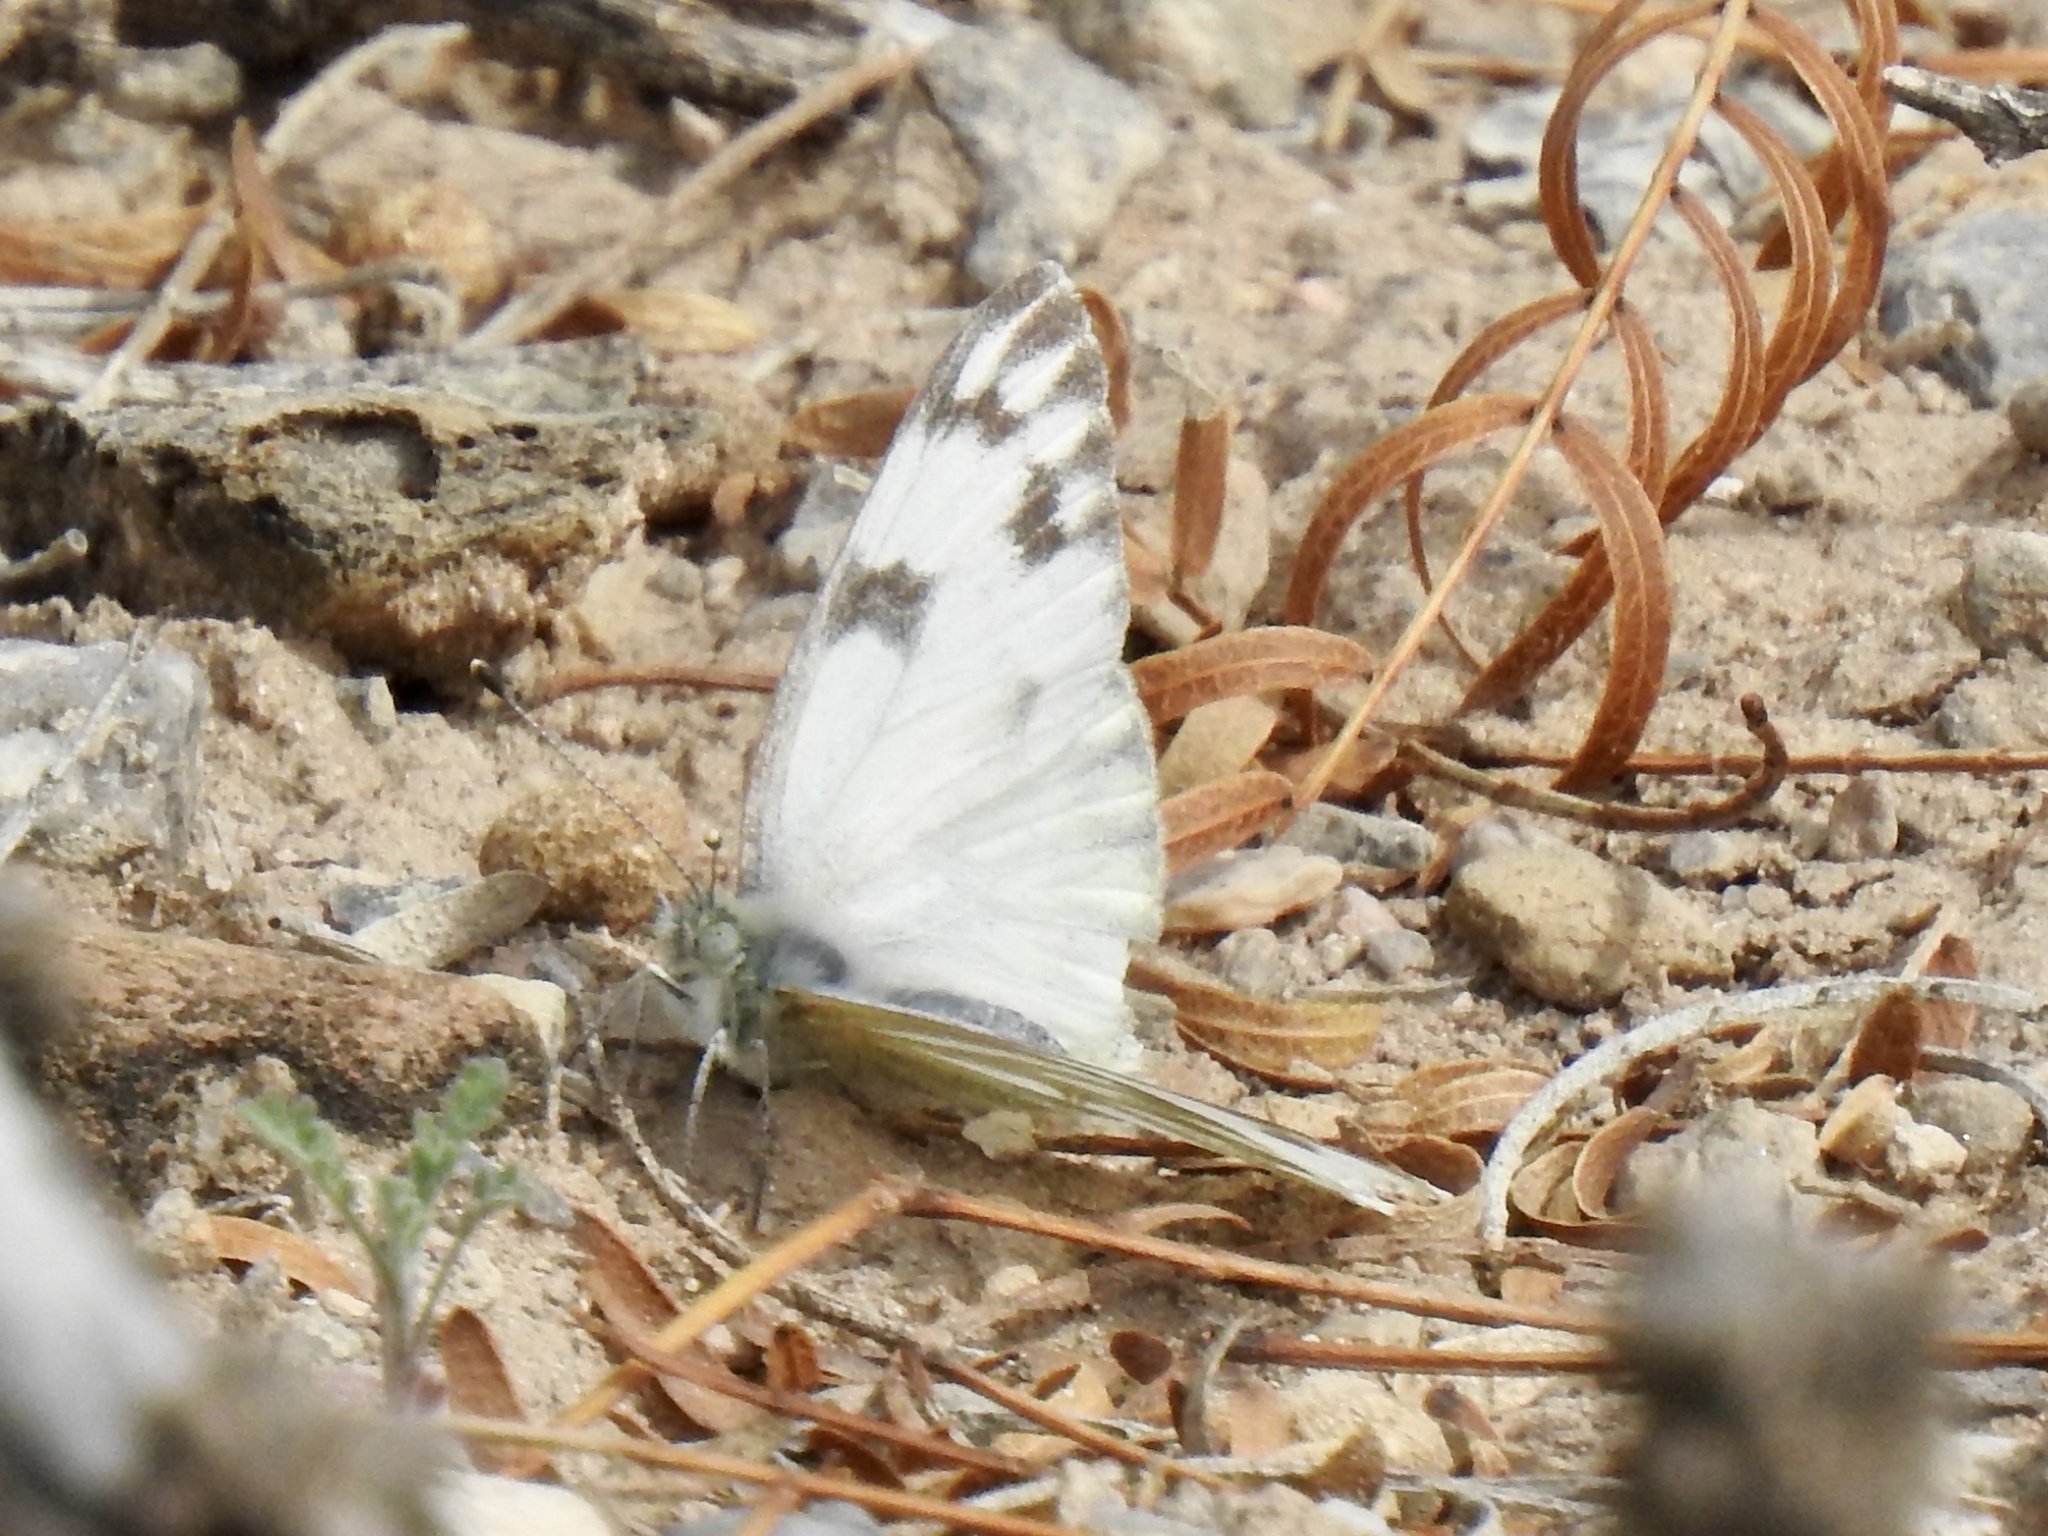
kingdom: Animalia
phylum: Arthropoda
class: Insecta
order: Lepidoptera
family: Pieridae
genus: Pontia
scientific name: Pontia protodice
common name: Checkered white
